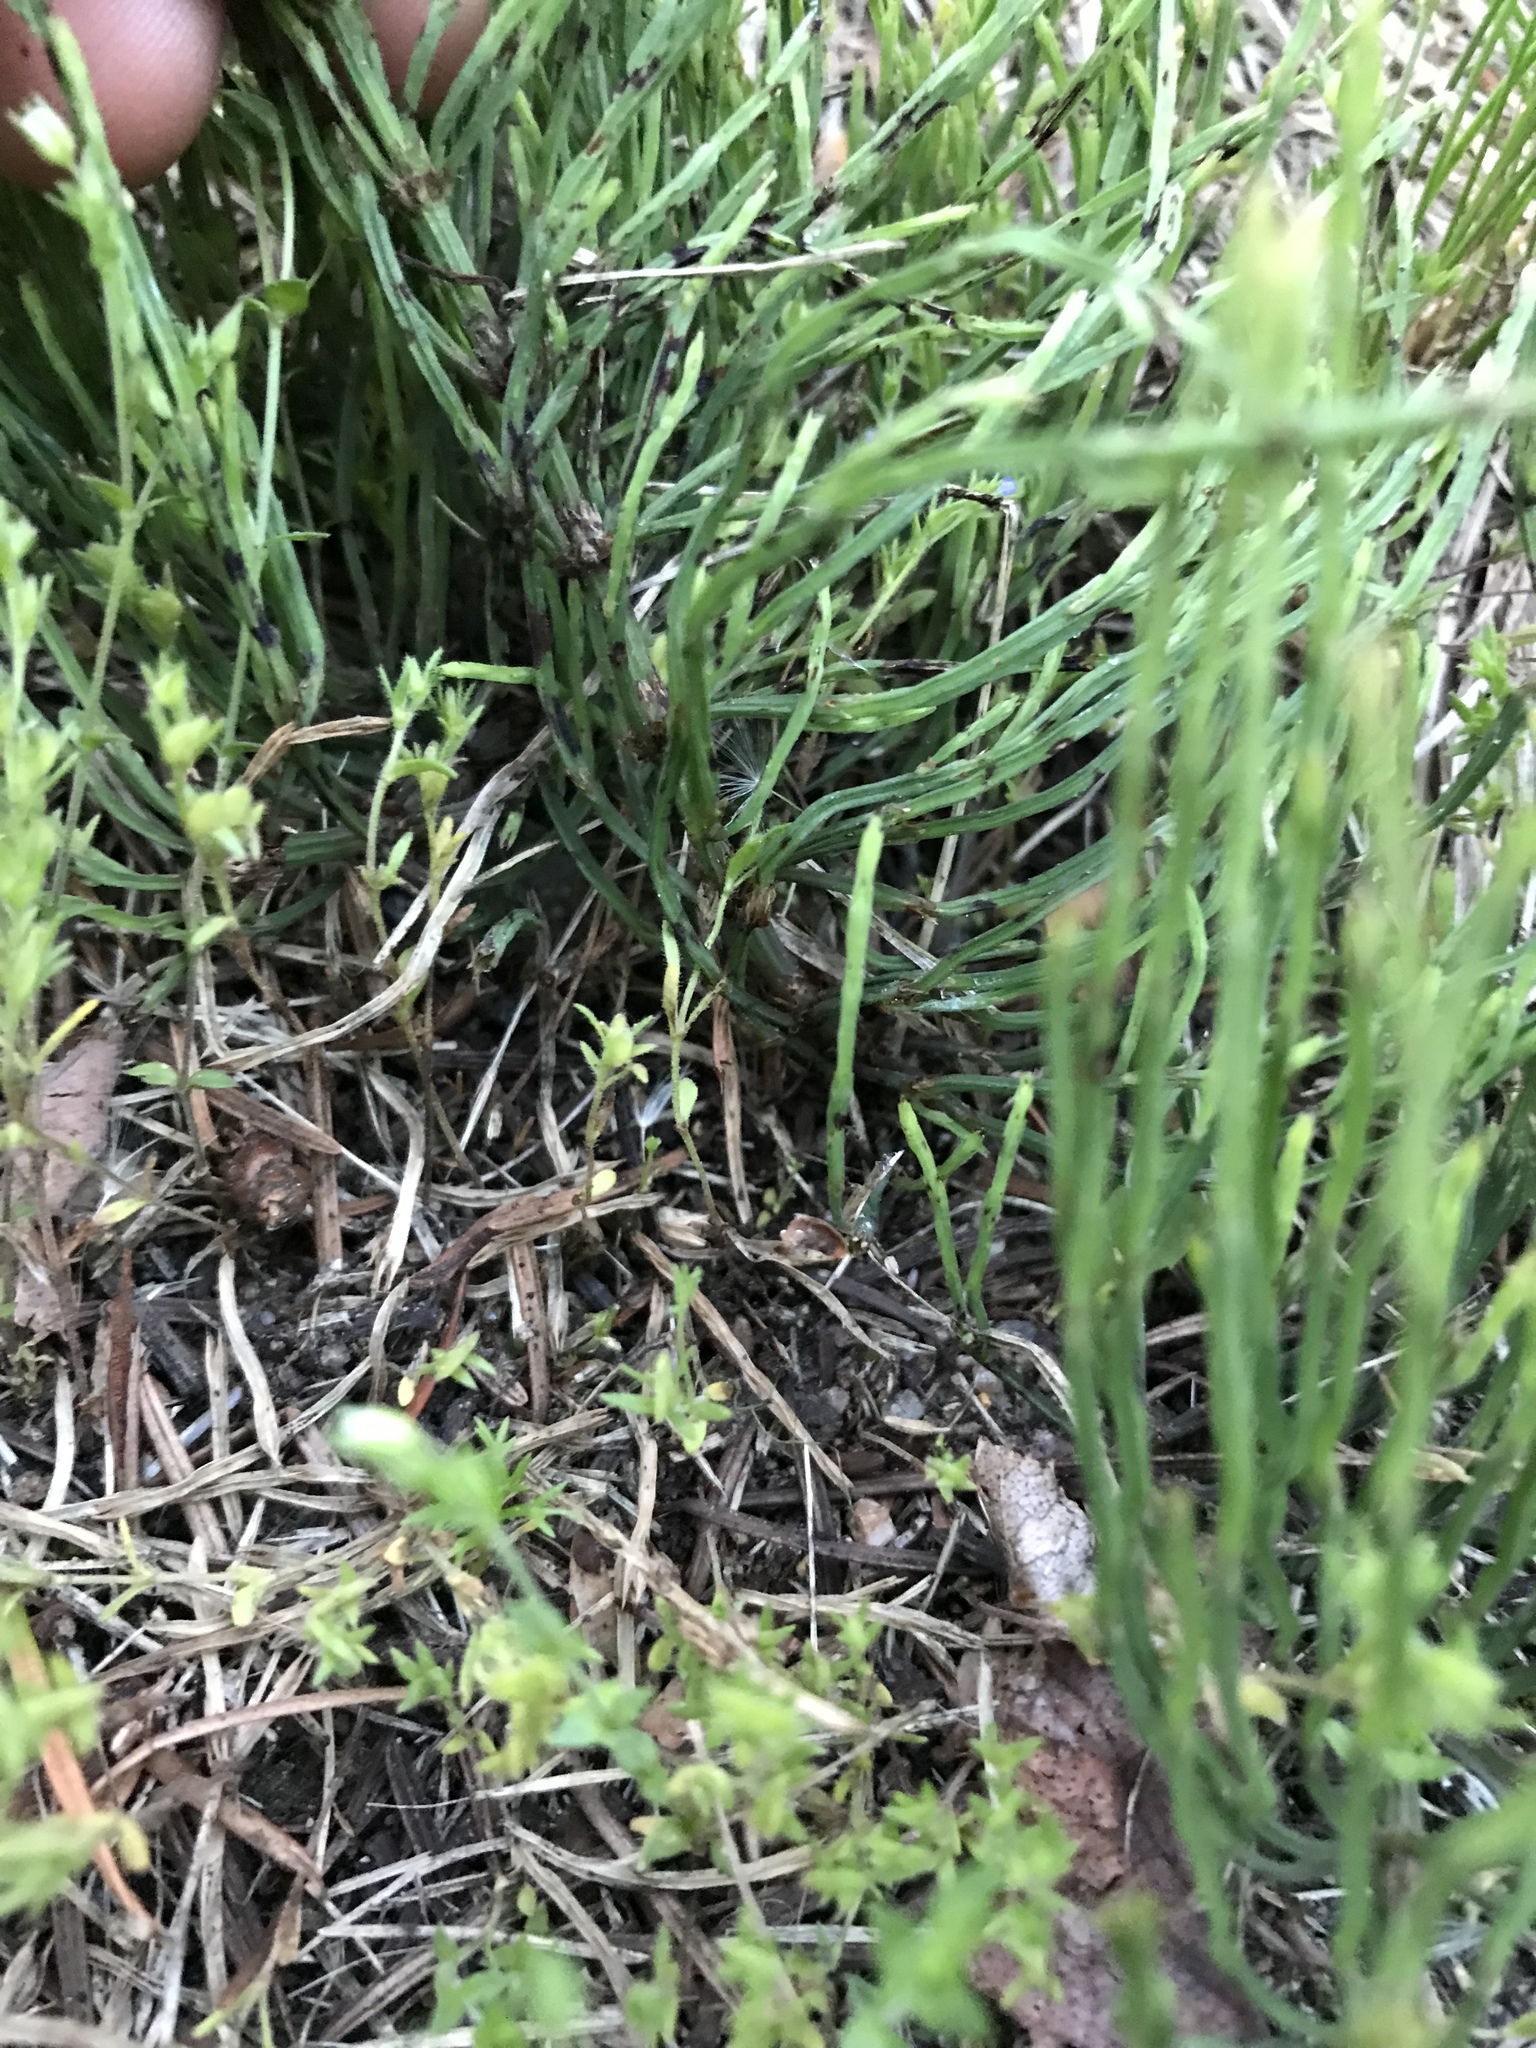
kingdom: Plantae
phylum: Tracheophyta
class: Polypodiopsida
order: Equisetales
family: Equisetaceae
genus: Equisetum
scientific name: Equisetum arvense
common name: Field horsetail
